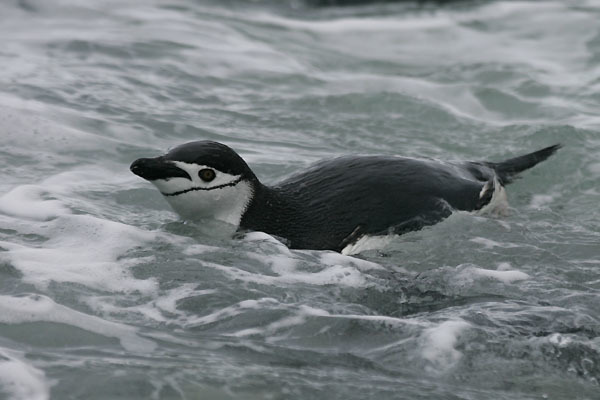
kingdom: Animalia
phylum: Chordata
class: Aves
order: Sphenisciformes
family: Spheniscidae
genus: Pygoscelis
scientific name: Pygoscelis antarcticus
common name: Chinstrap penguin
